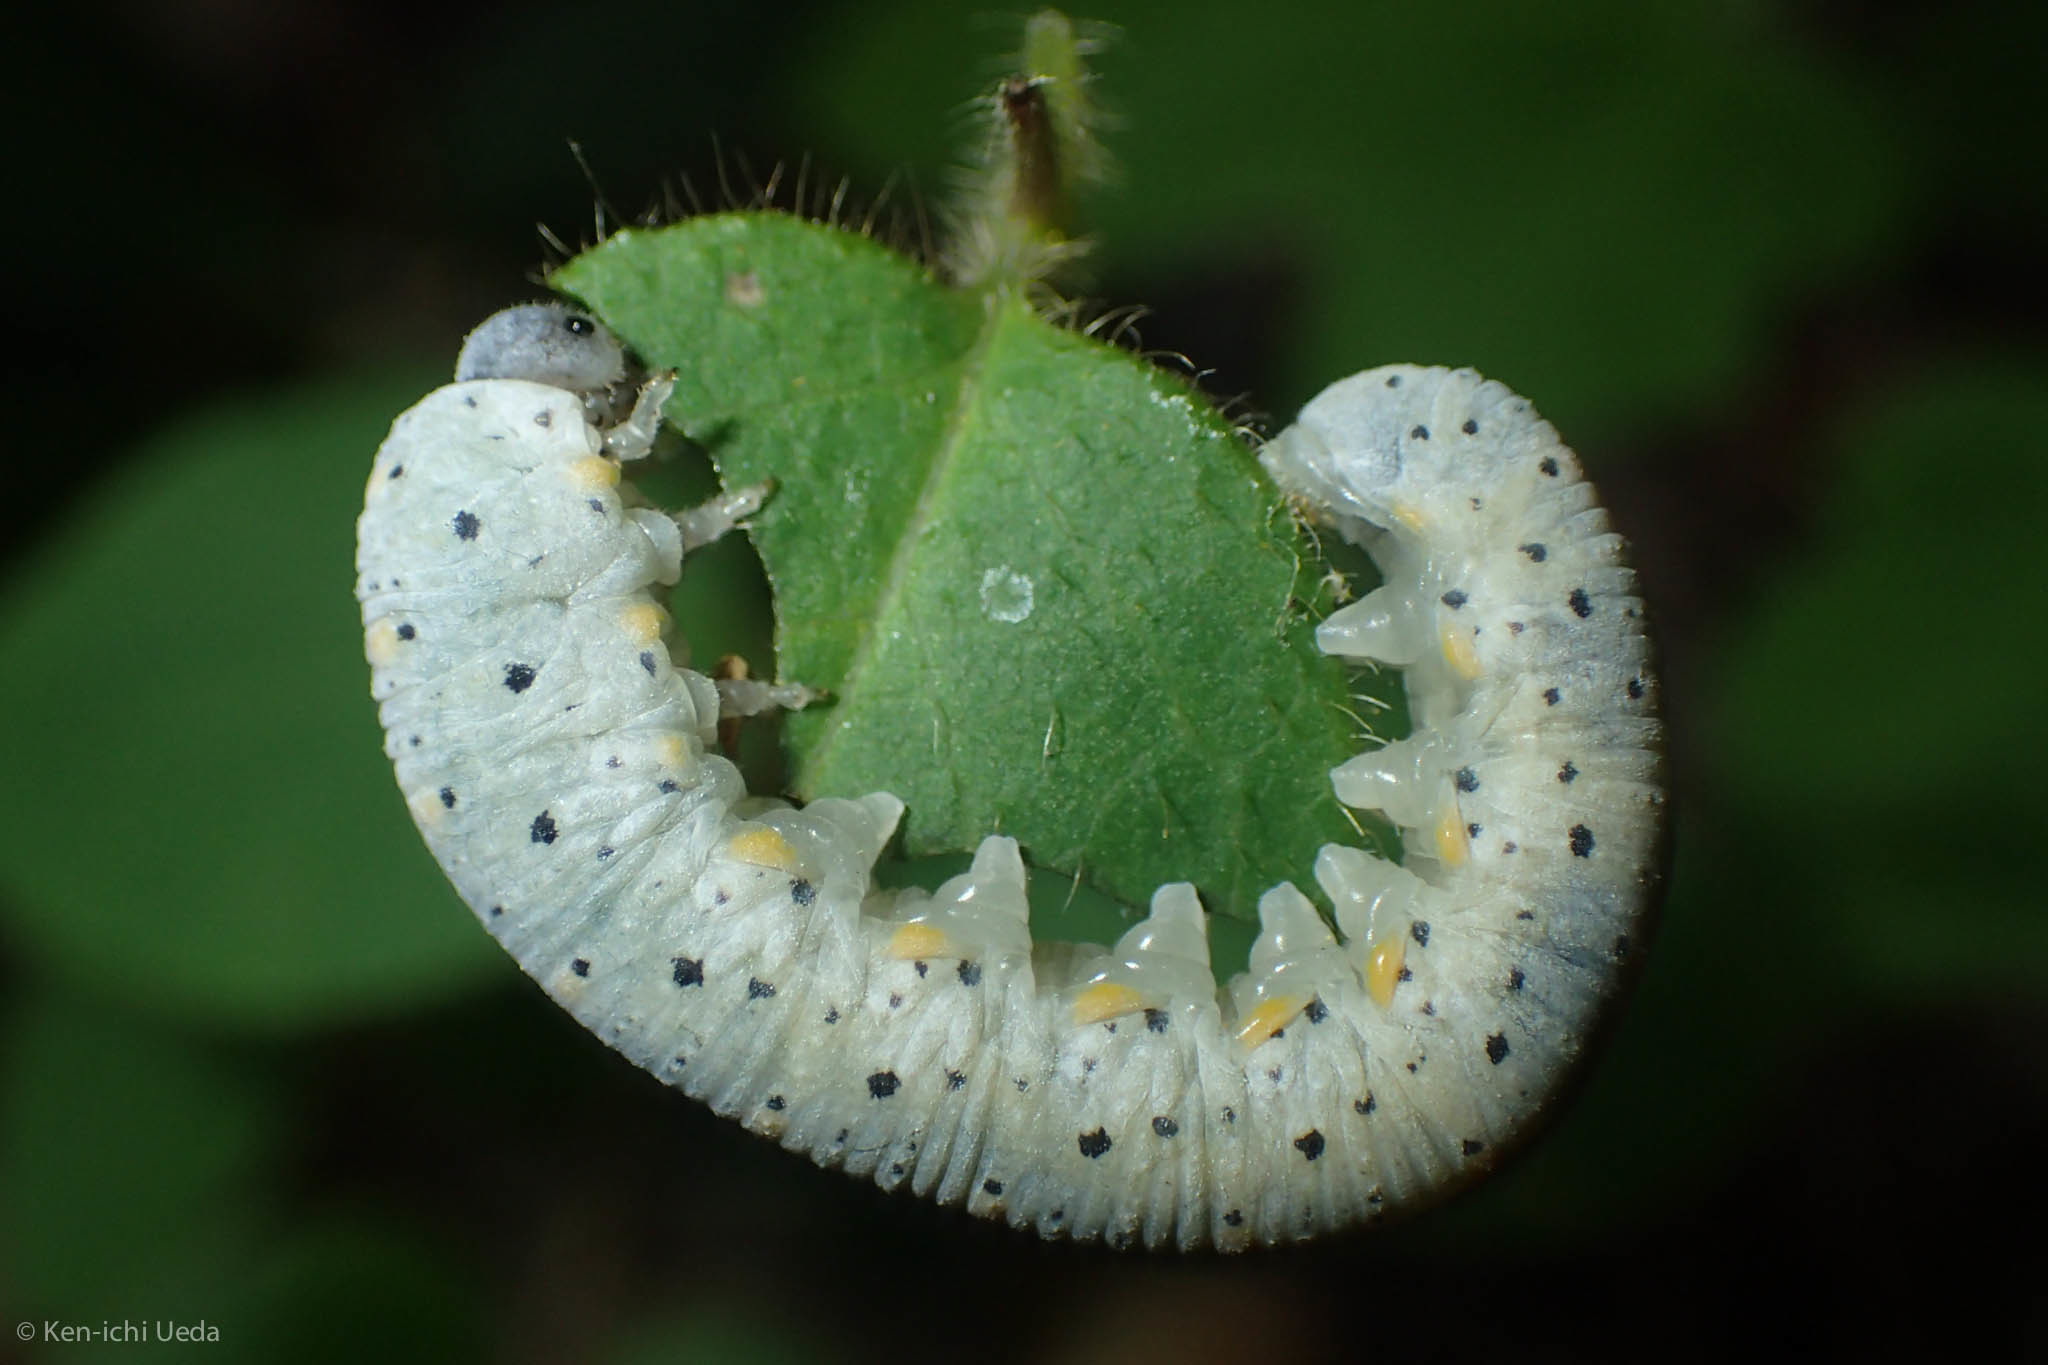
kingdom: Animalia
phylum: Arthropoda
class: Insecta
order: Hymenoptera
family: Cimbicidae
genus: Abia
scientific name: Abia americana
